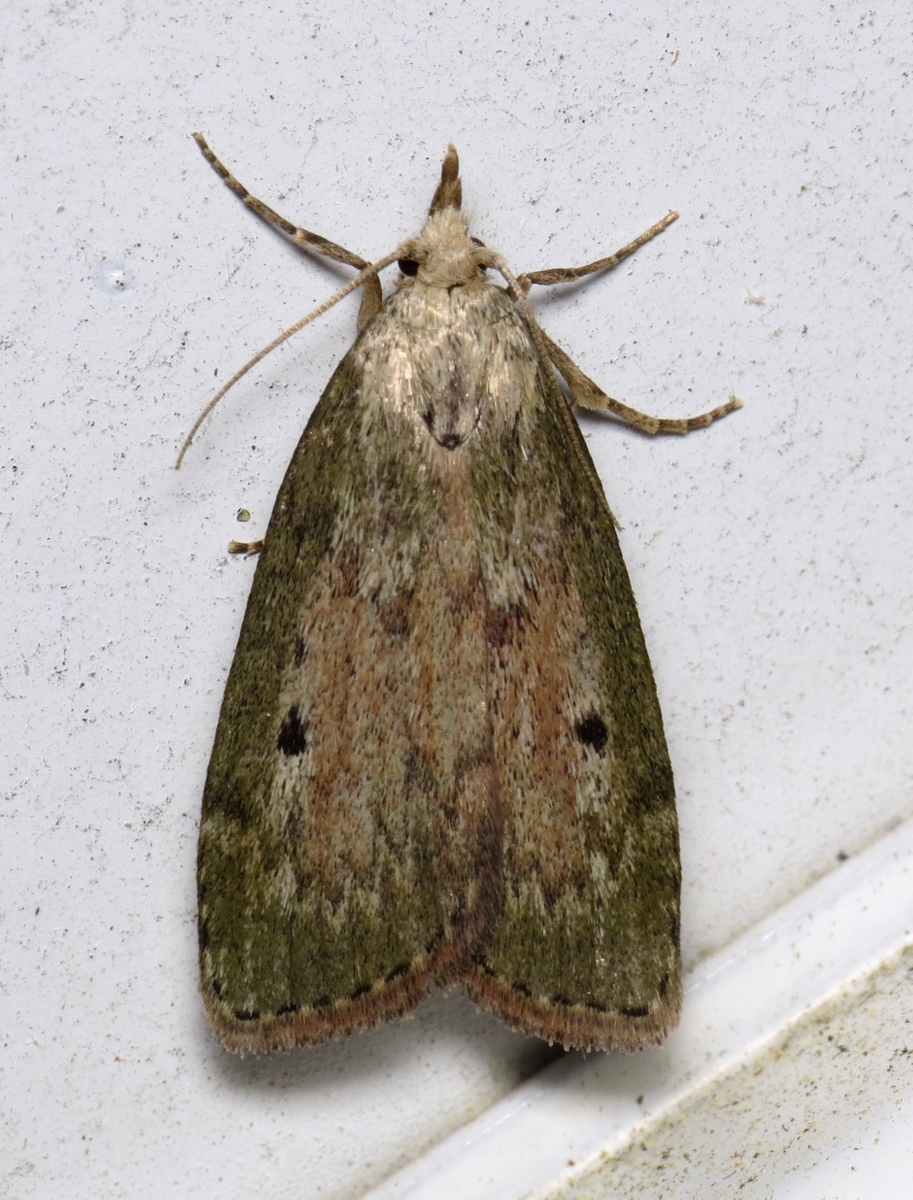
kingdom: Animalia
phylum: Arthropoda
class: Insecta
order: Lepidoptera
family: Pyralidae
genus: Aphomia
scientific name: Aphomia sociella
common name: Bee moth
